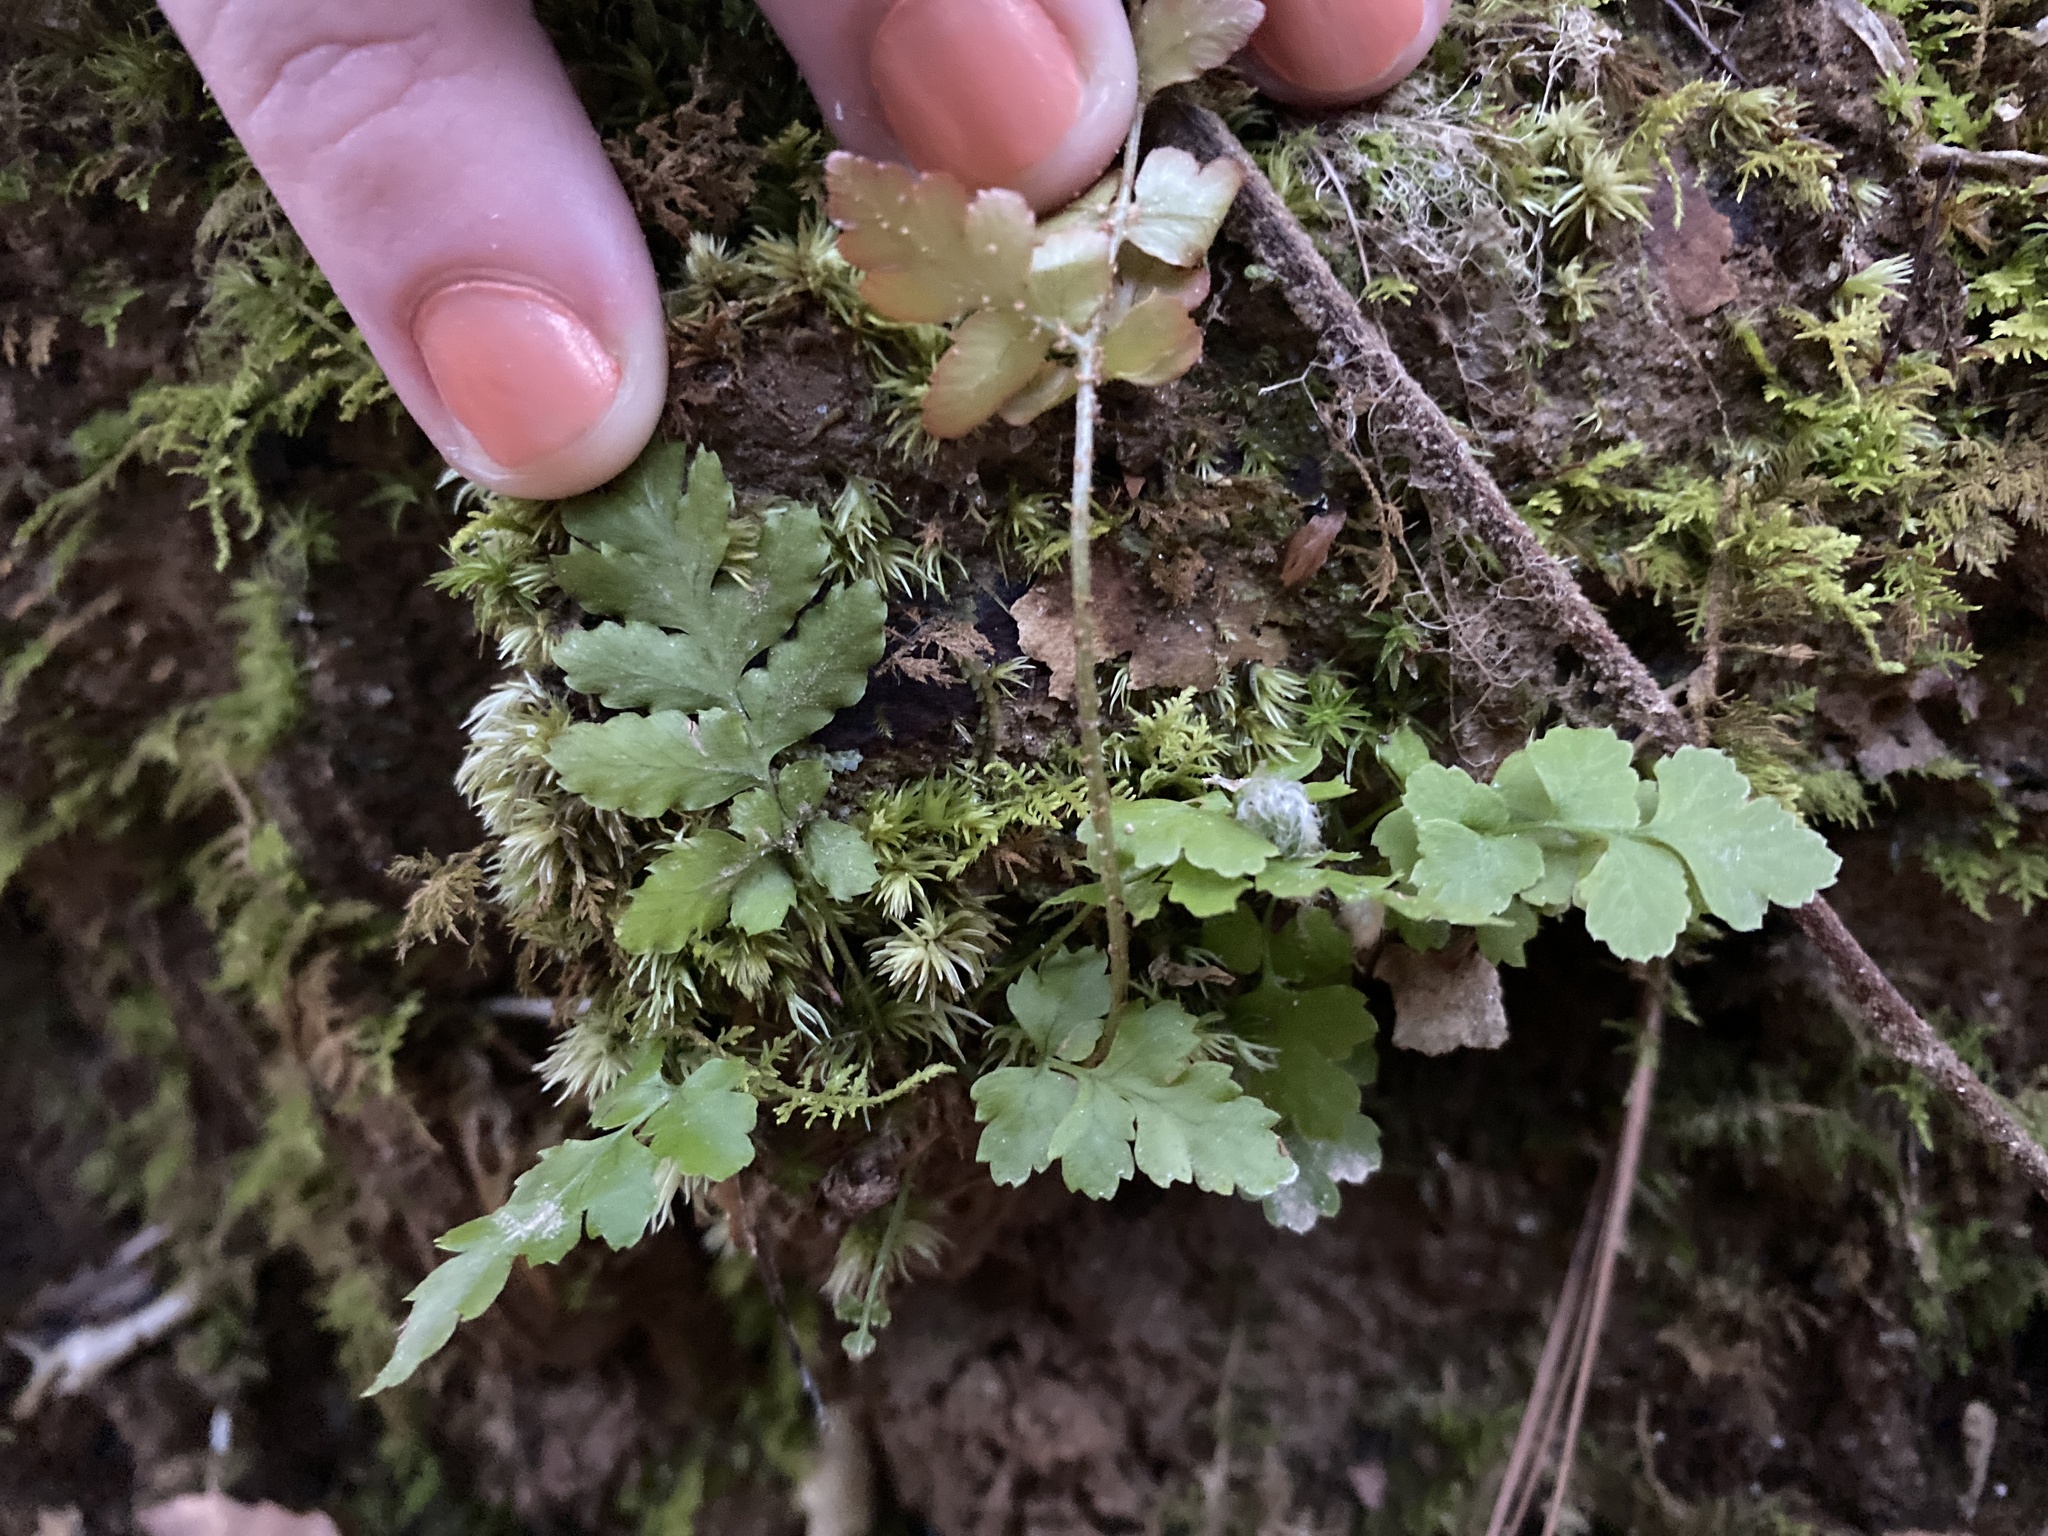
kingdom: Plantae
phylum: Tracheophyta
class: Polypodiopsida
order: Polypodiales
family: Dryopteridaceae
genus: Dryopteris
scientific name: Dryopteris erythrosora
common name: Autumn fern
